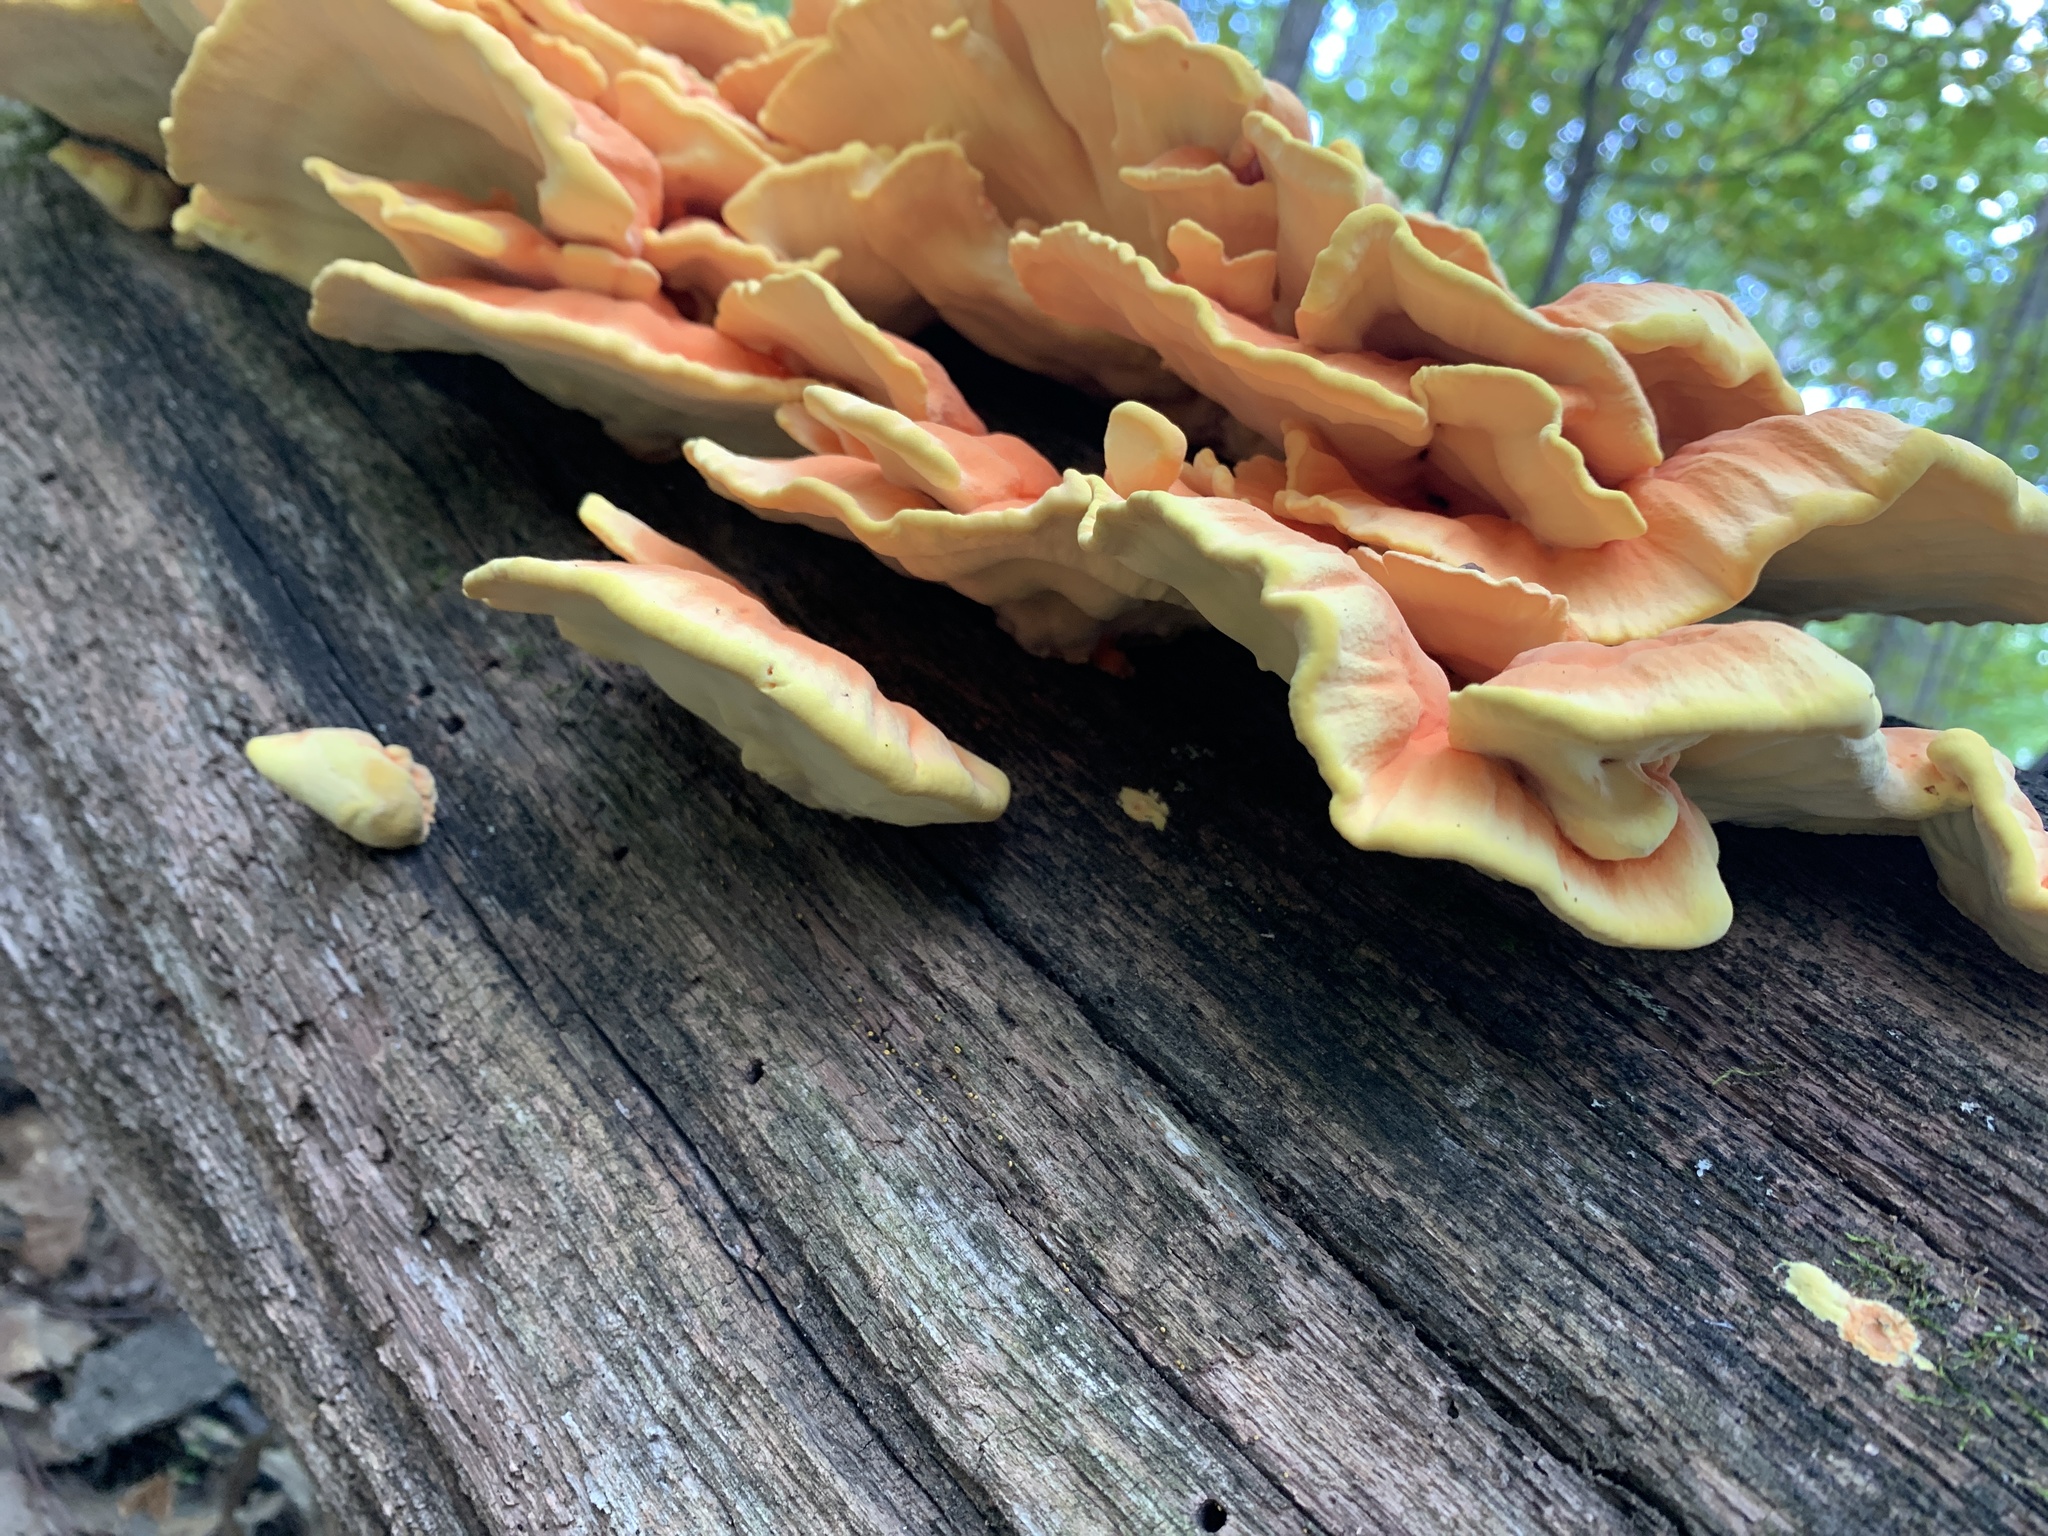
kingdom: Fungi
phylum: Basidiomycota
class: Agaricomycetes
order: Polyporales
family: Laetiporaceae
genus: Laetiporus
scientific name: Laetiporus sulphureus
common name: Chicken of the woods
